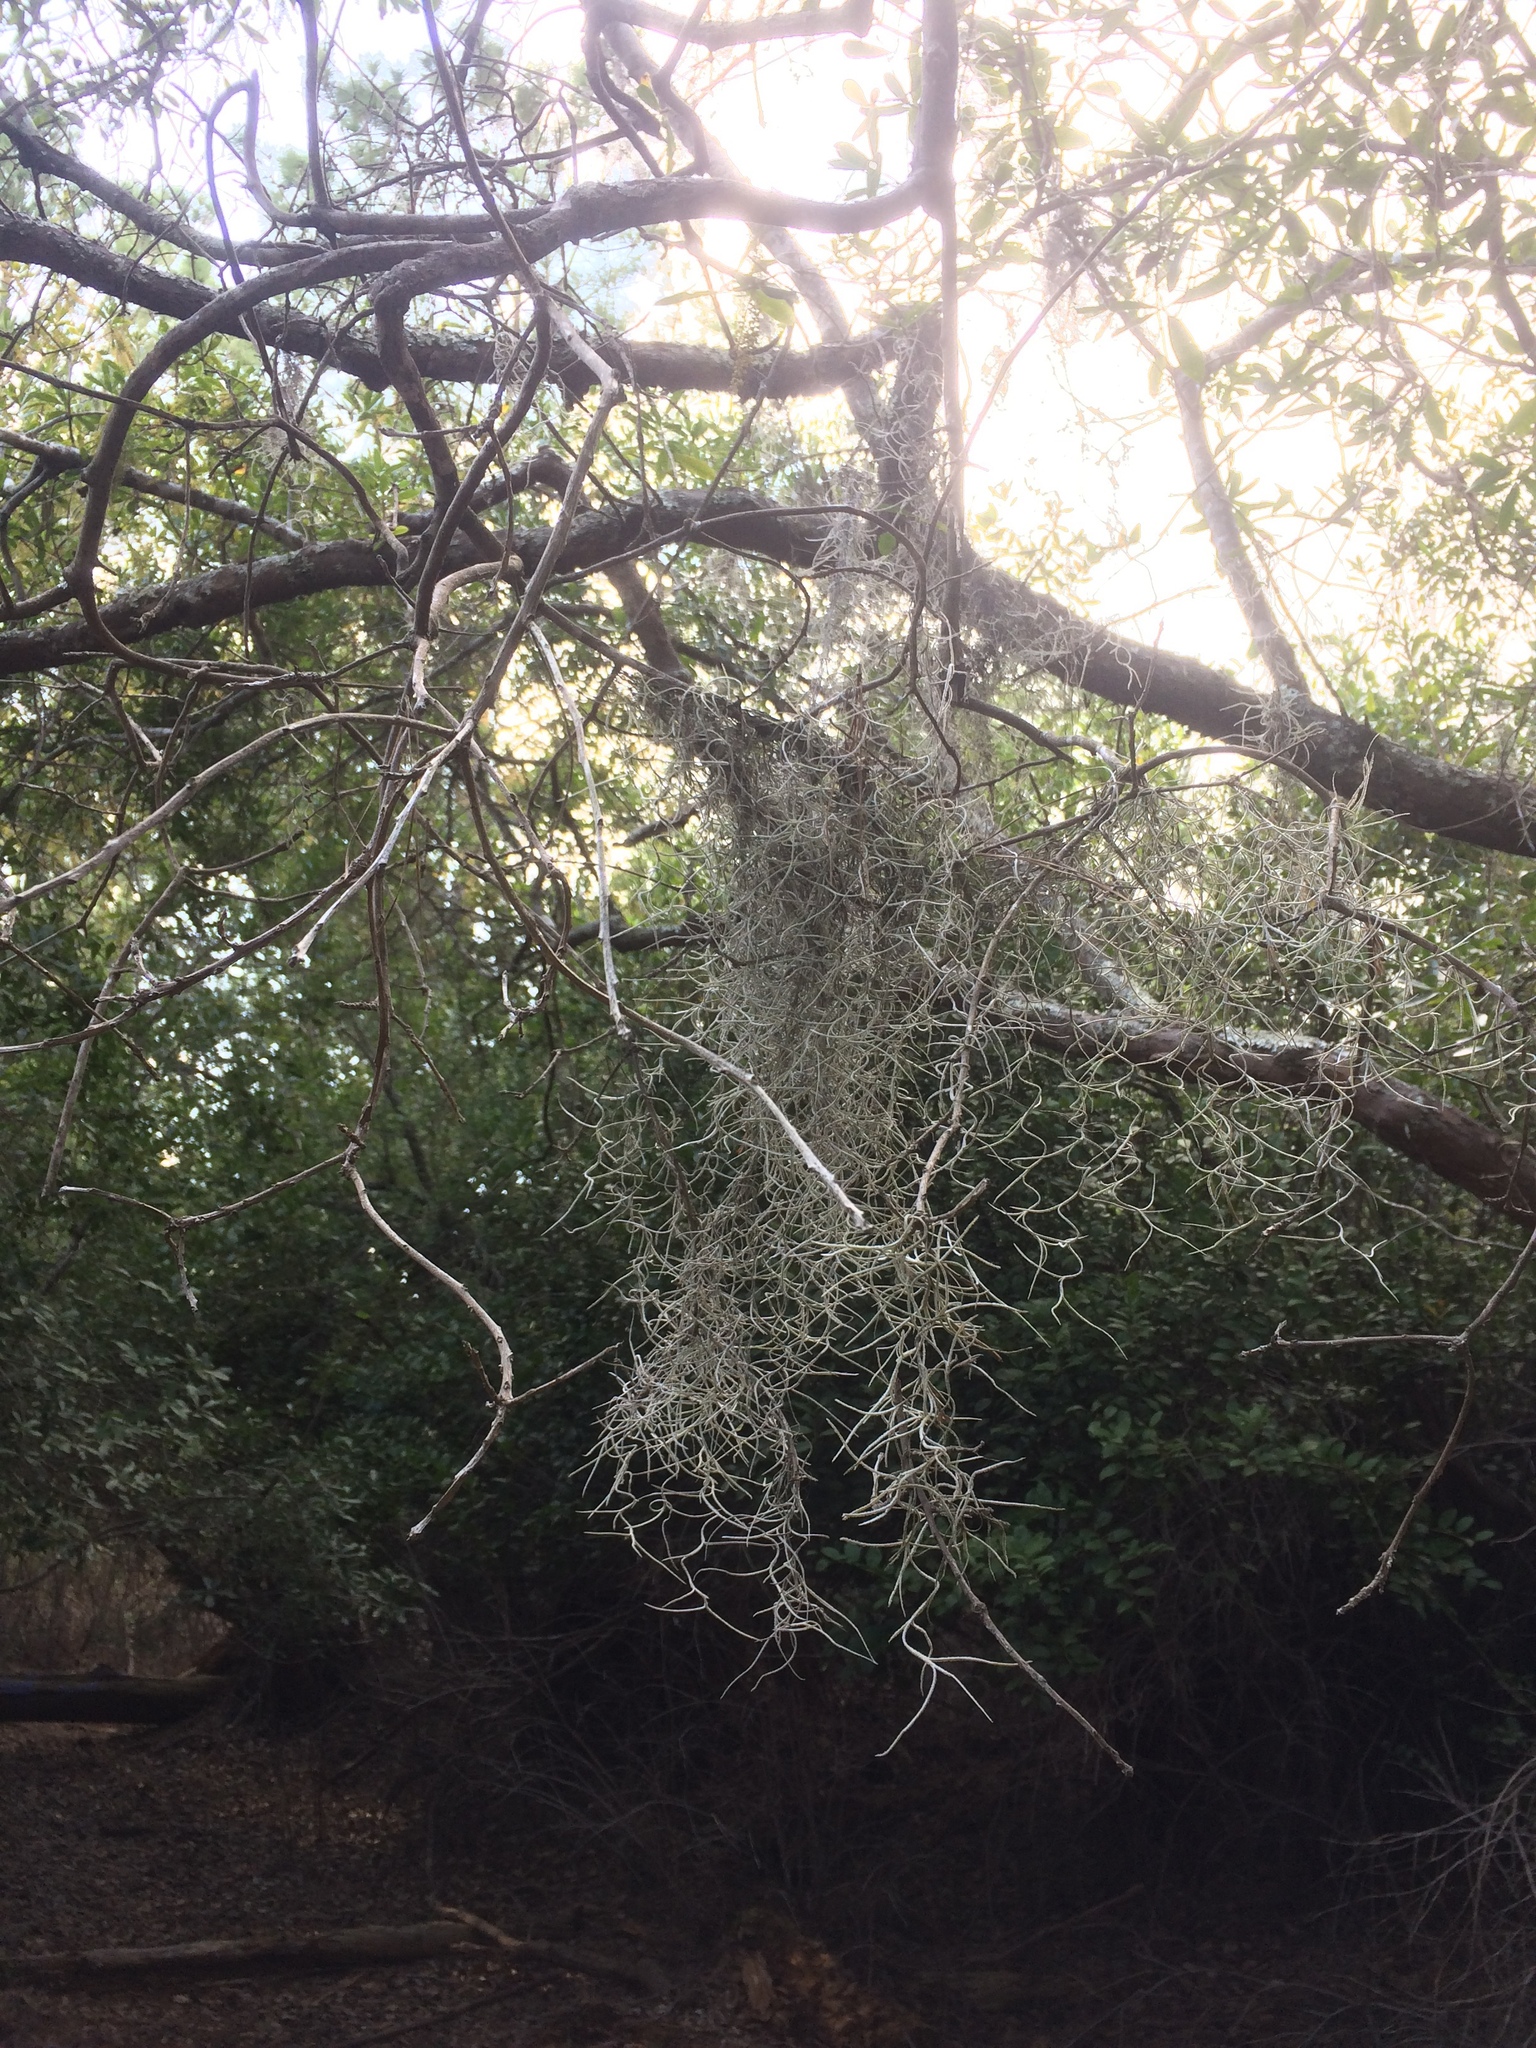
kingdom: Plantae
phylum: Tracheophyta
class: Liliopsida
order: Poales
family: Bromeliaceae
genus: Tillandsia
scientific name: Tillandsia usneoides
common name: Spanish moss
